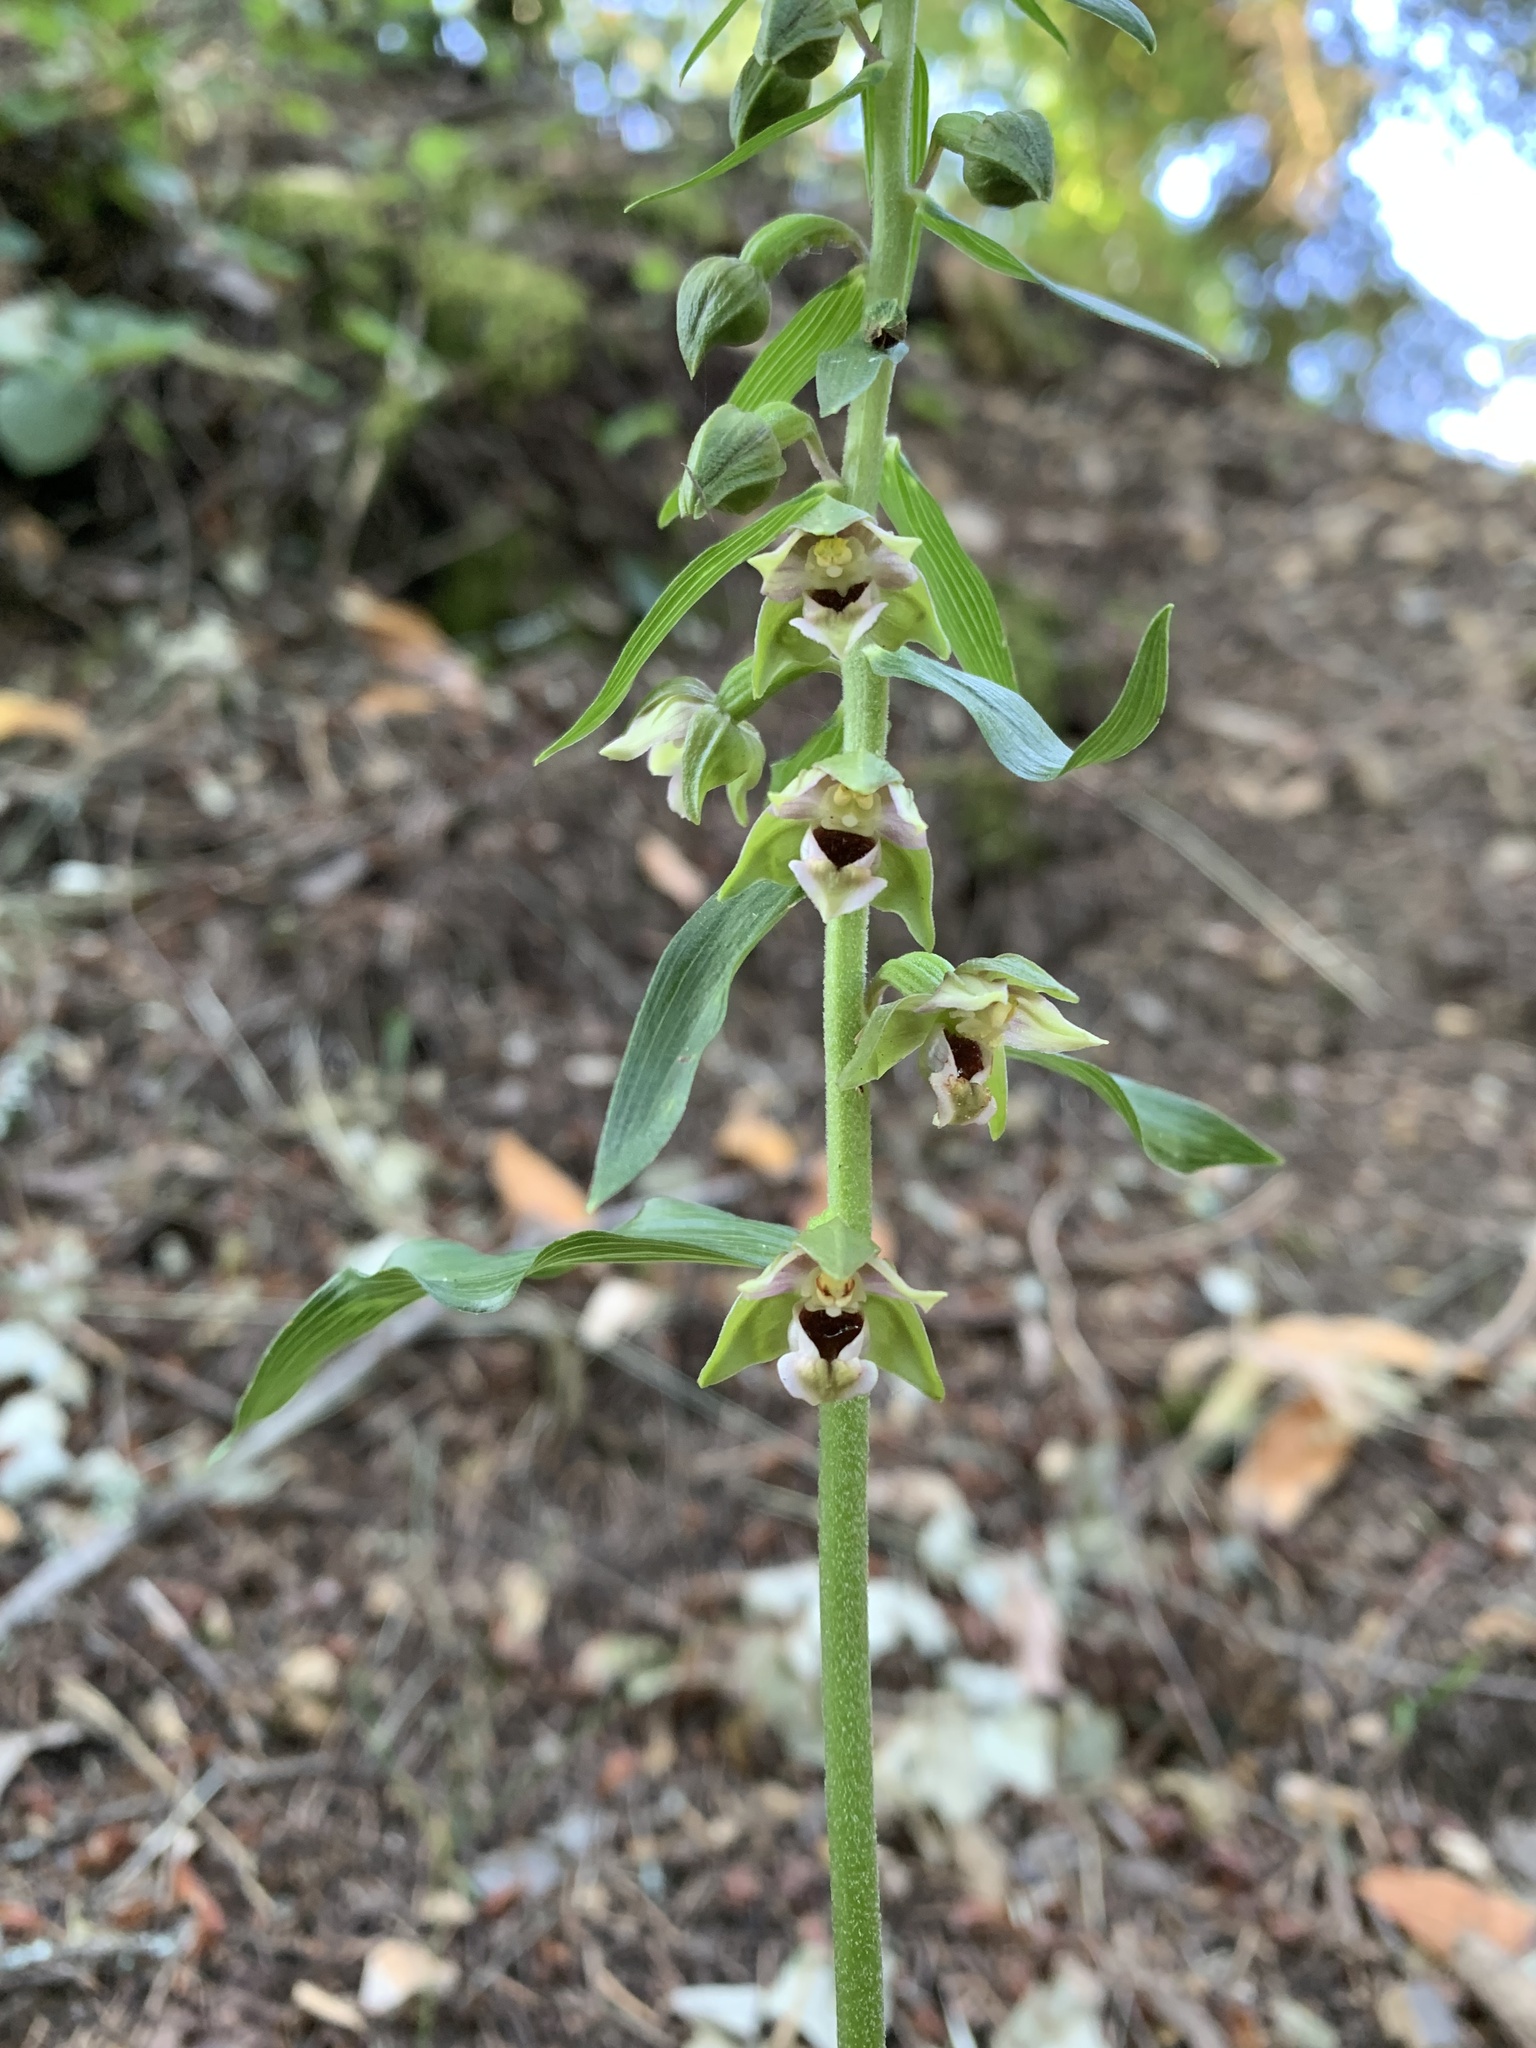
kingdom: Plantae
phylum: Tracheophyta
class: Liliopsida
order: Asparagales
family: Orchidaceae
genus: Epipactis
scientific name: Epipactis helleborine
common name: Broad-leaved helleborine
